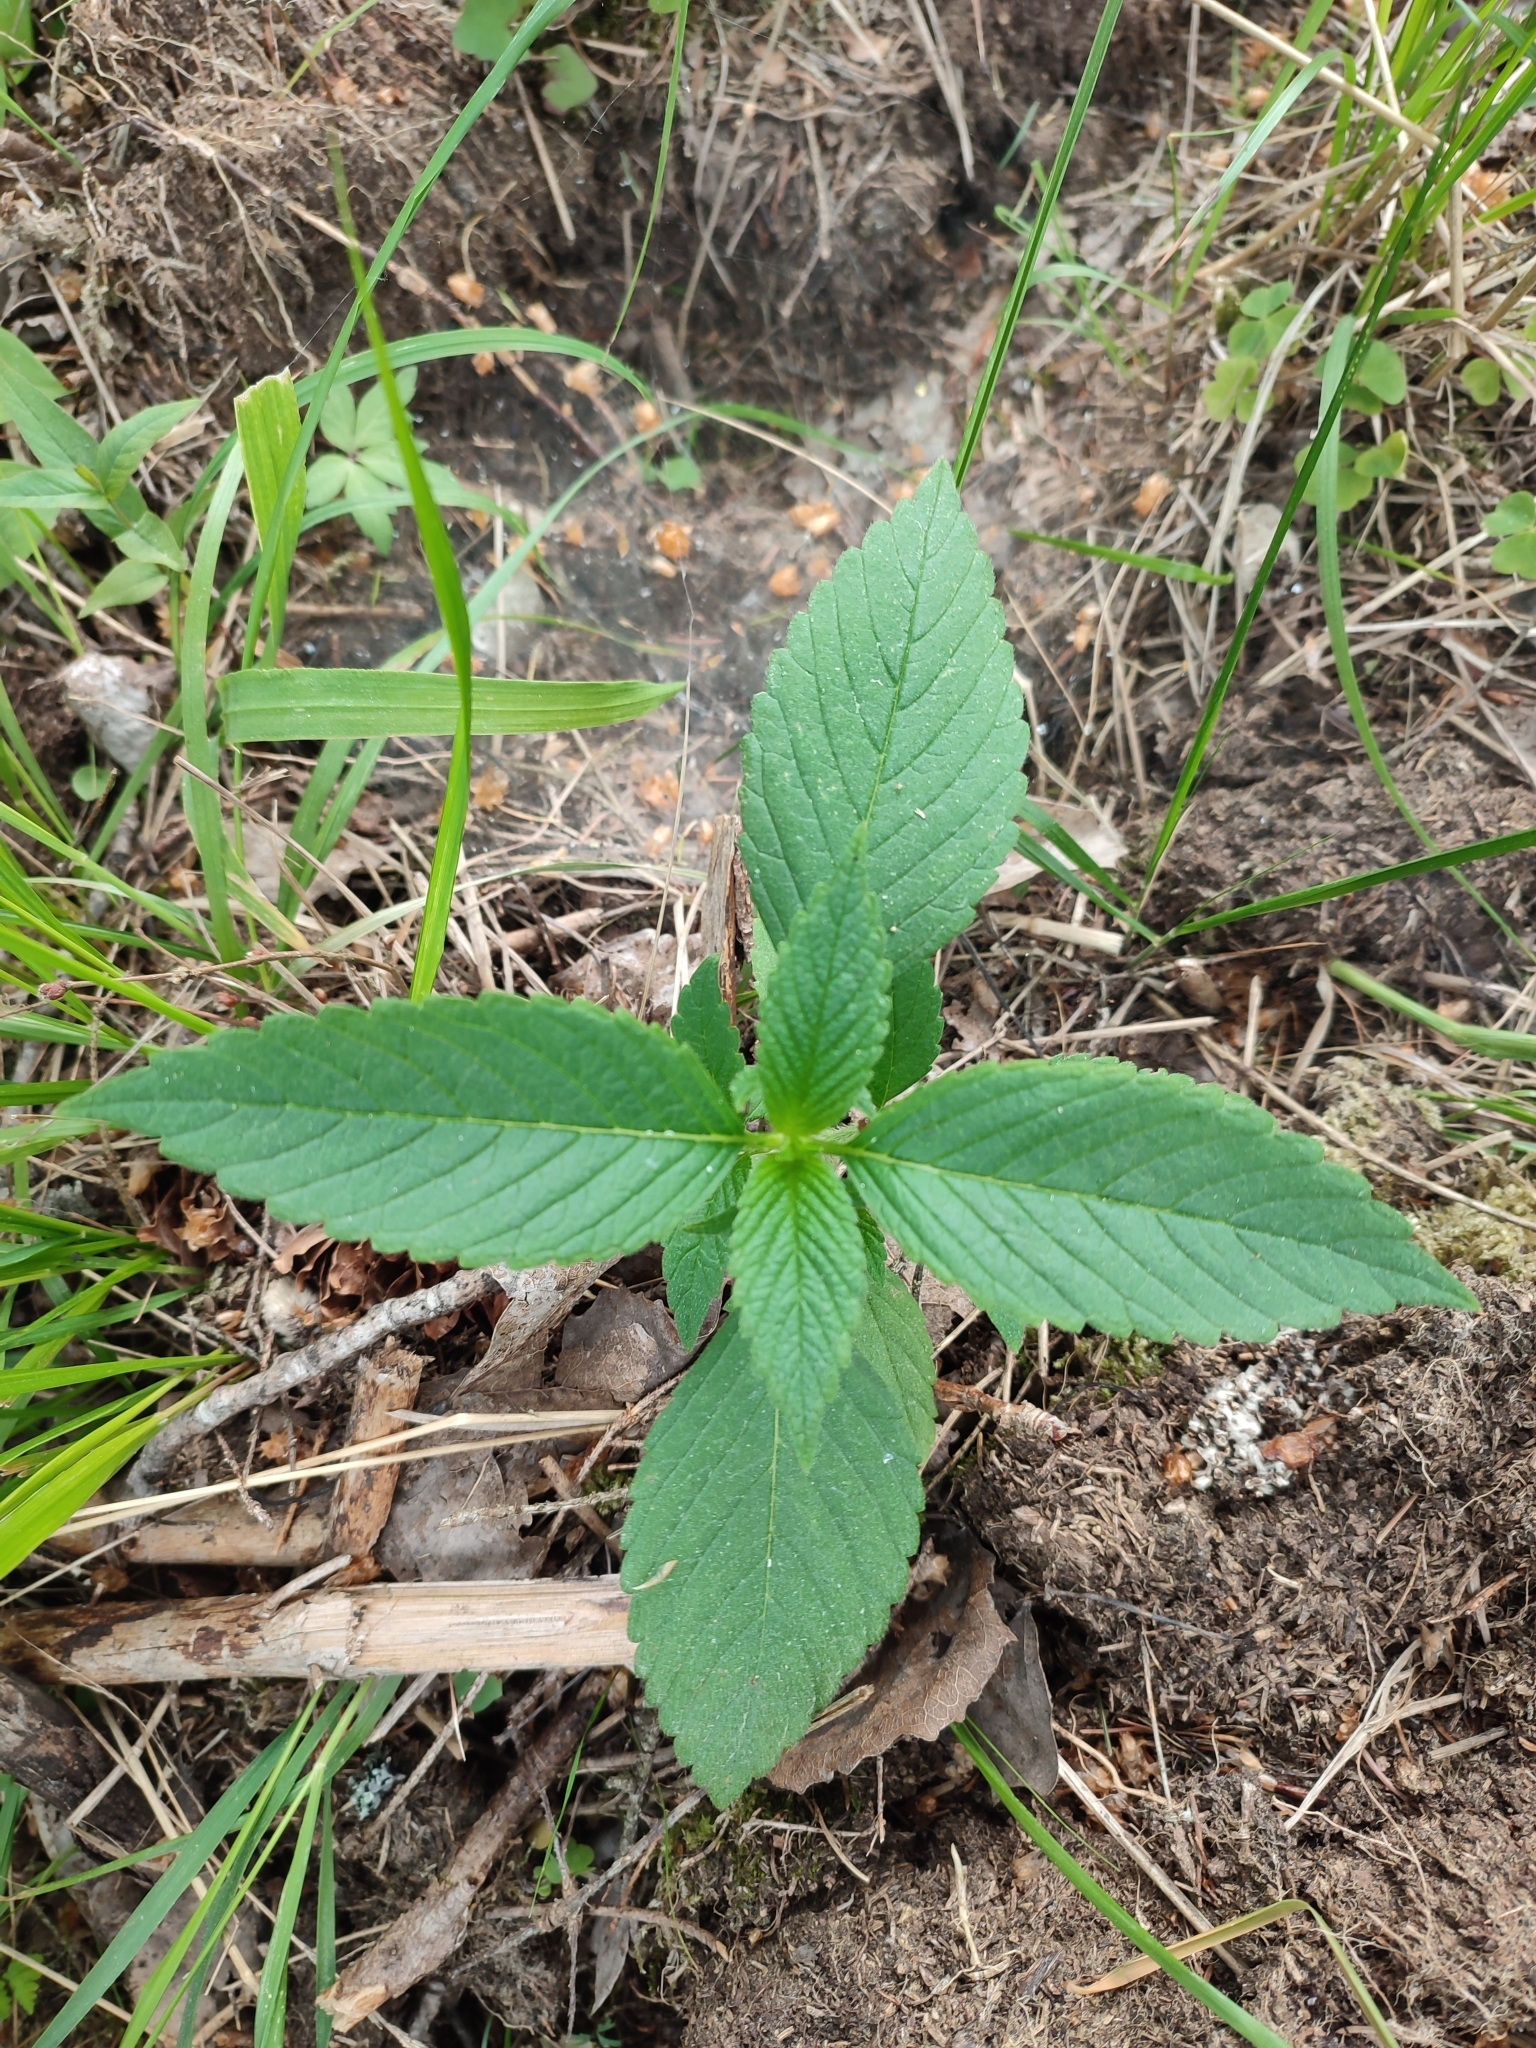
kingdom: Plantae
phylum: Tracheophyta
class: Magnoliopsida
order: Lamiales
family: Lamiaceae
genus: Galeopsis
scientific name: Galeopsis tetrahit
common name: Common hemp-nettle
